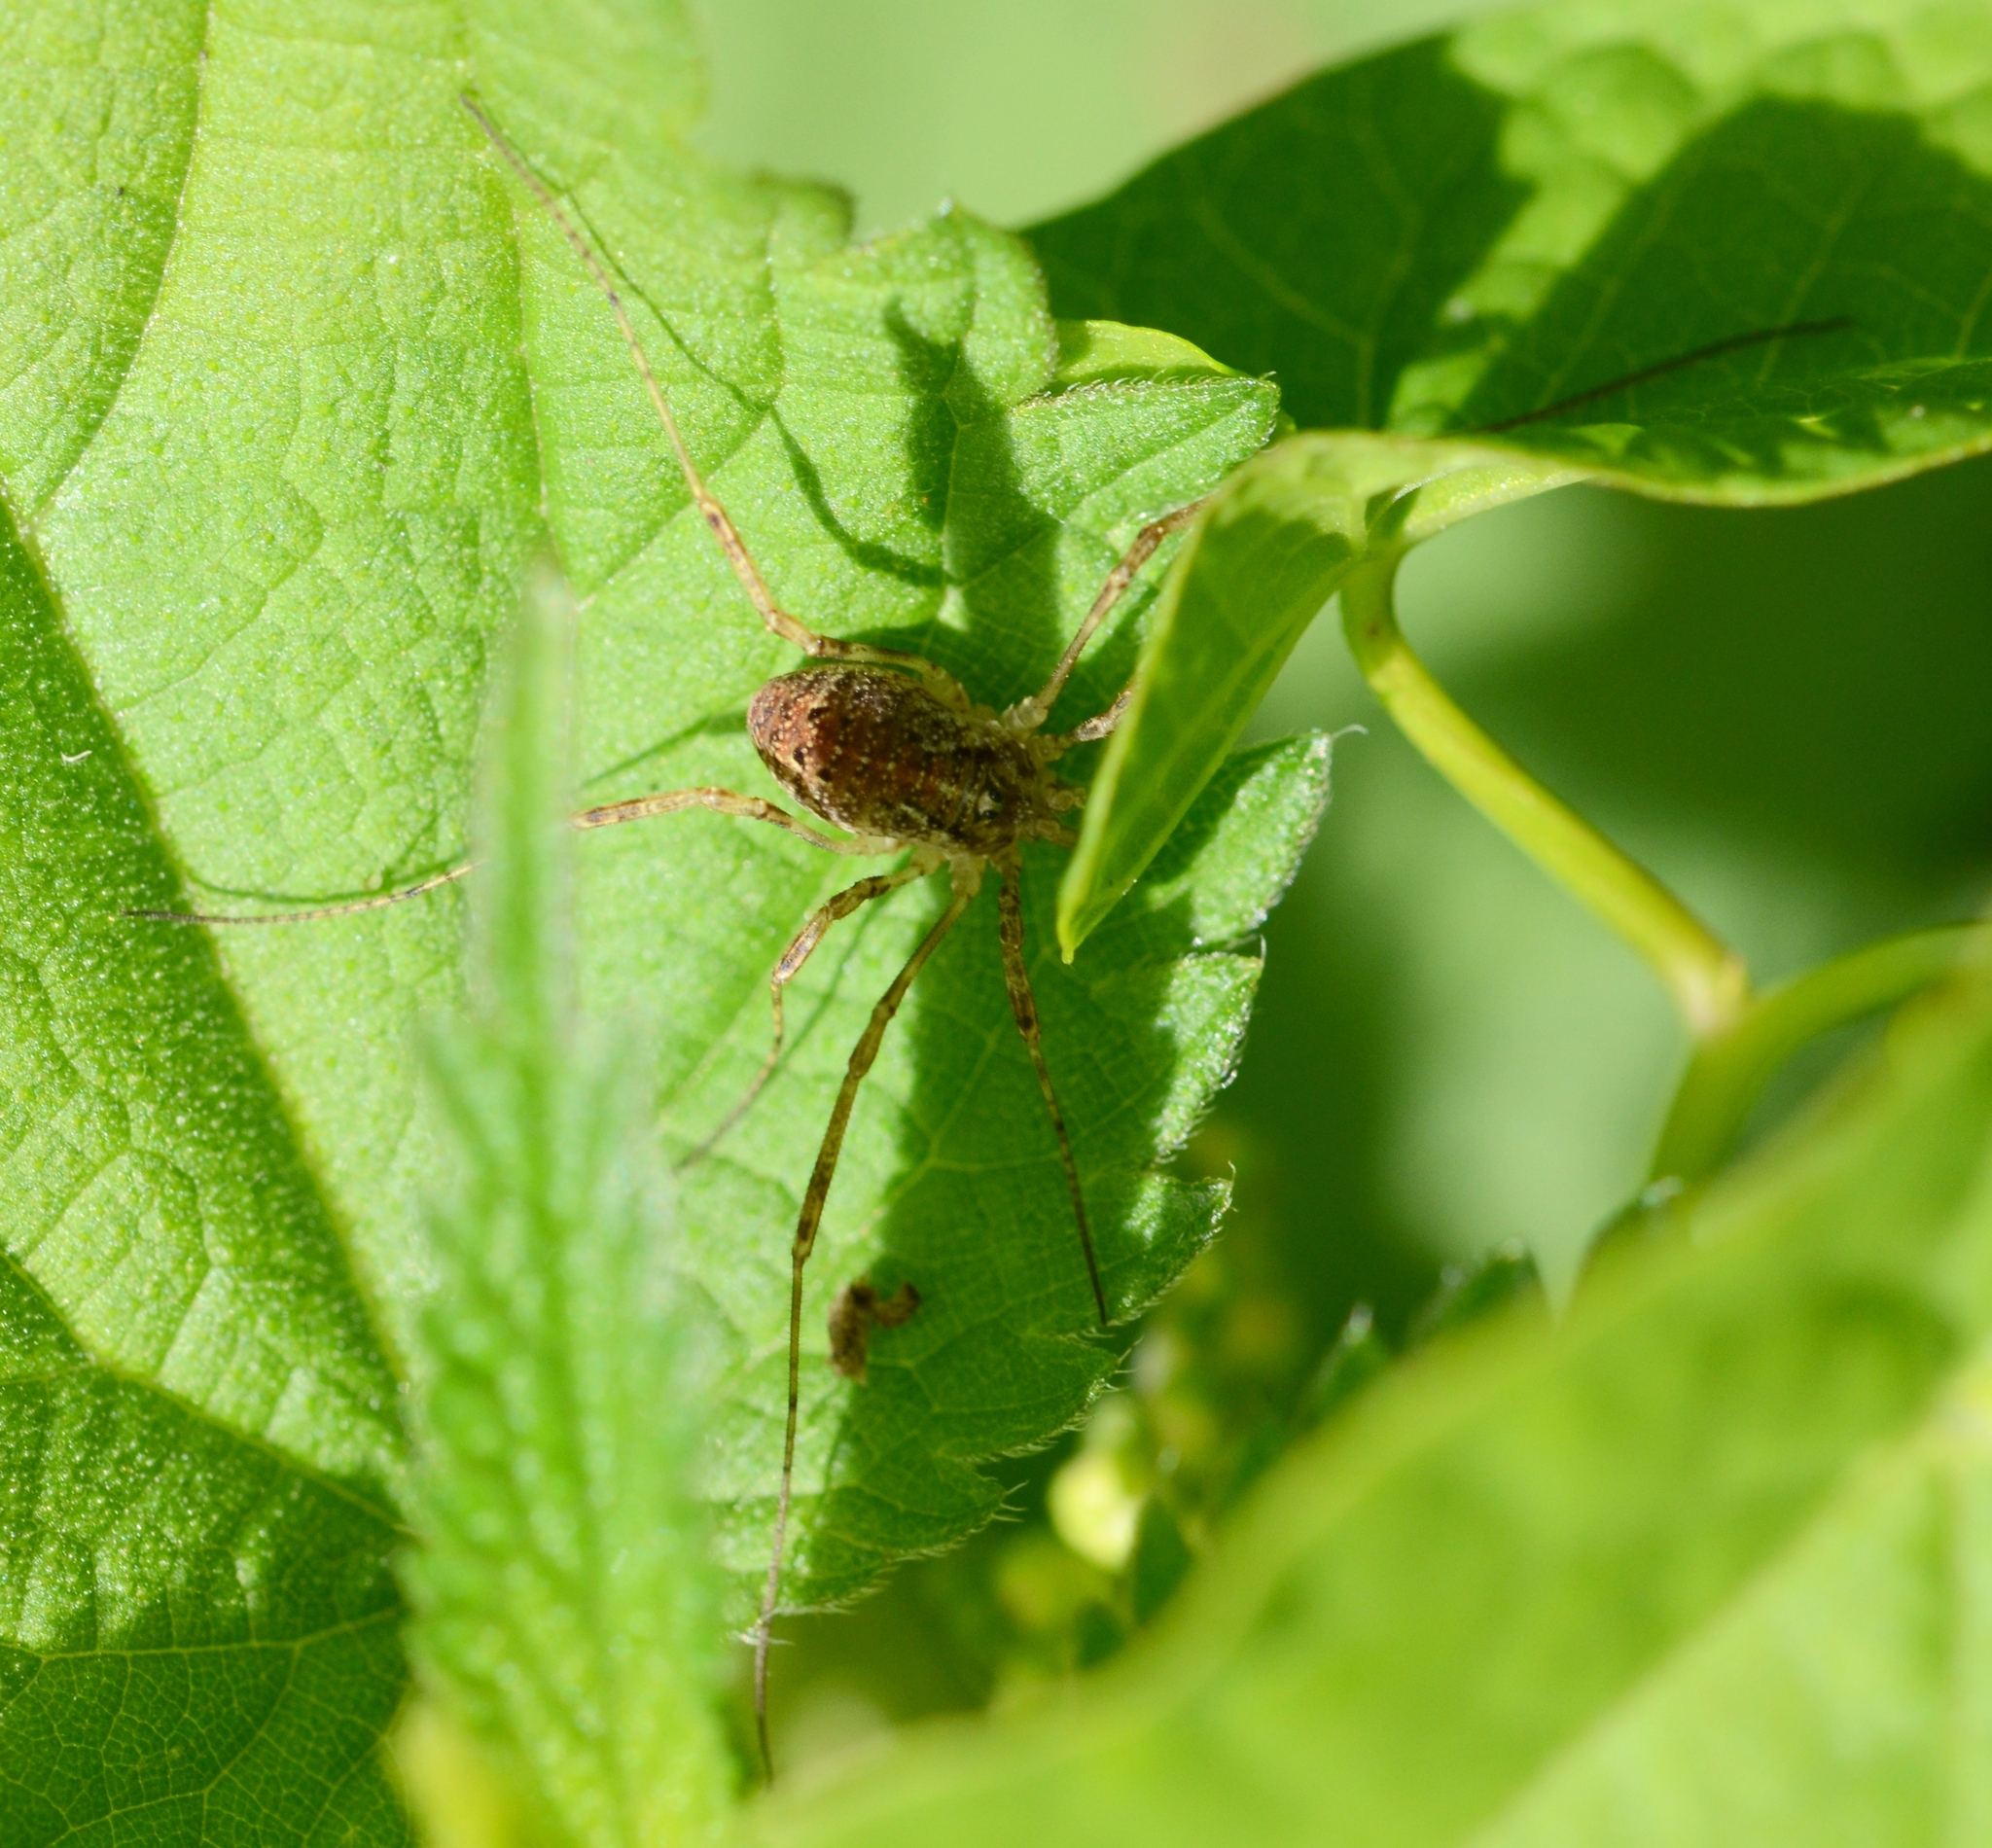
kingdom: Animalia
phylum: Arthropoda
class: Arachnida
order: Opiliones
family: Phalangiidae
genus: Paroligolophus
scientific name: Paroligolophus agrestis
